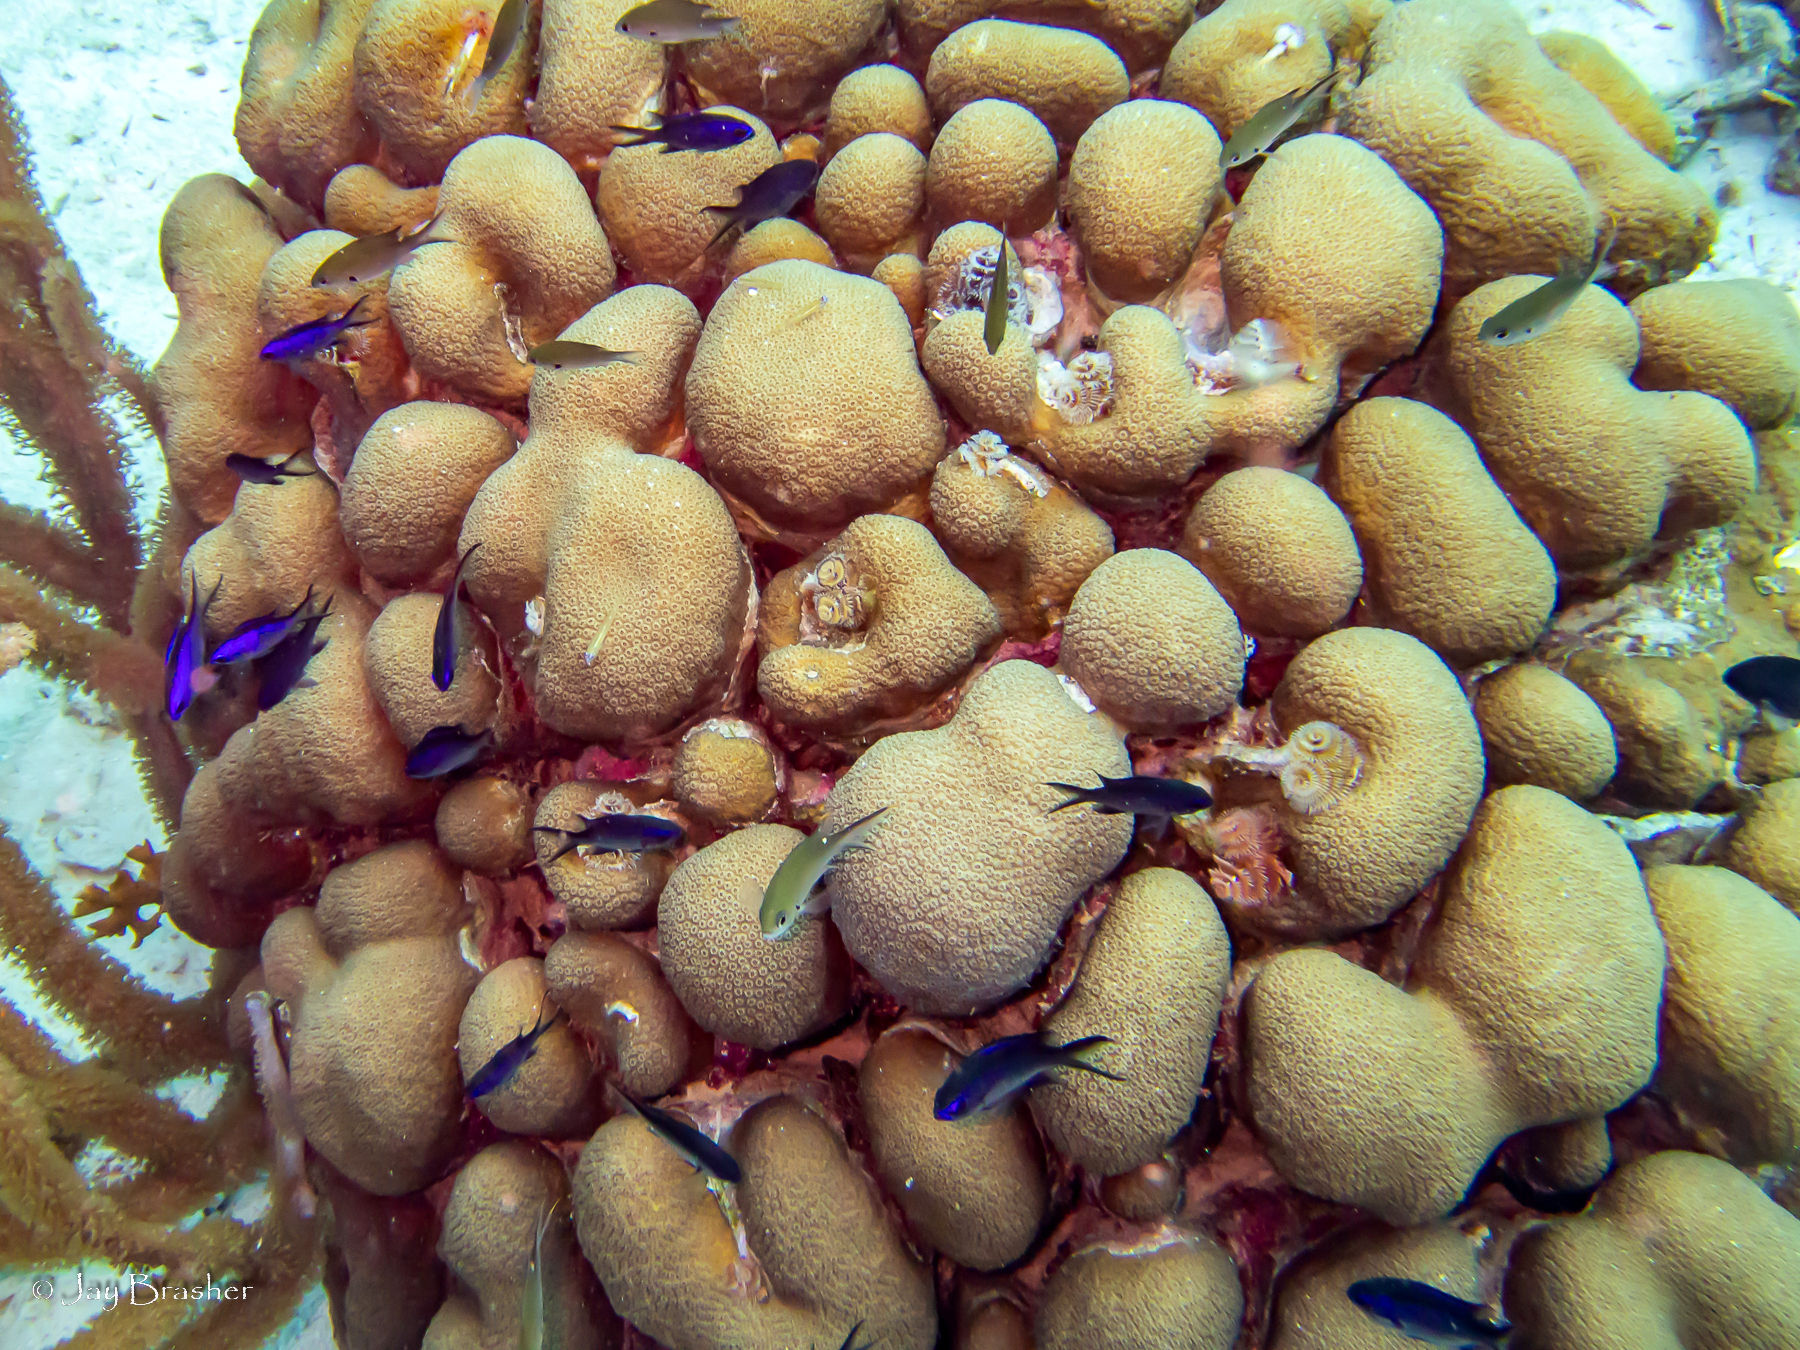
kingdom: Animalia
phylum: Annelida
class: Polychaeta
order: Sabellida
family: Serpulidae
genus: Spirobranchus
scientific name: Spirobranchus giganteus
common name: Christmas tree worm
